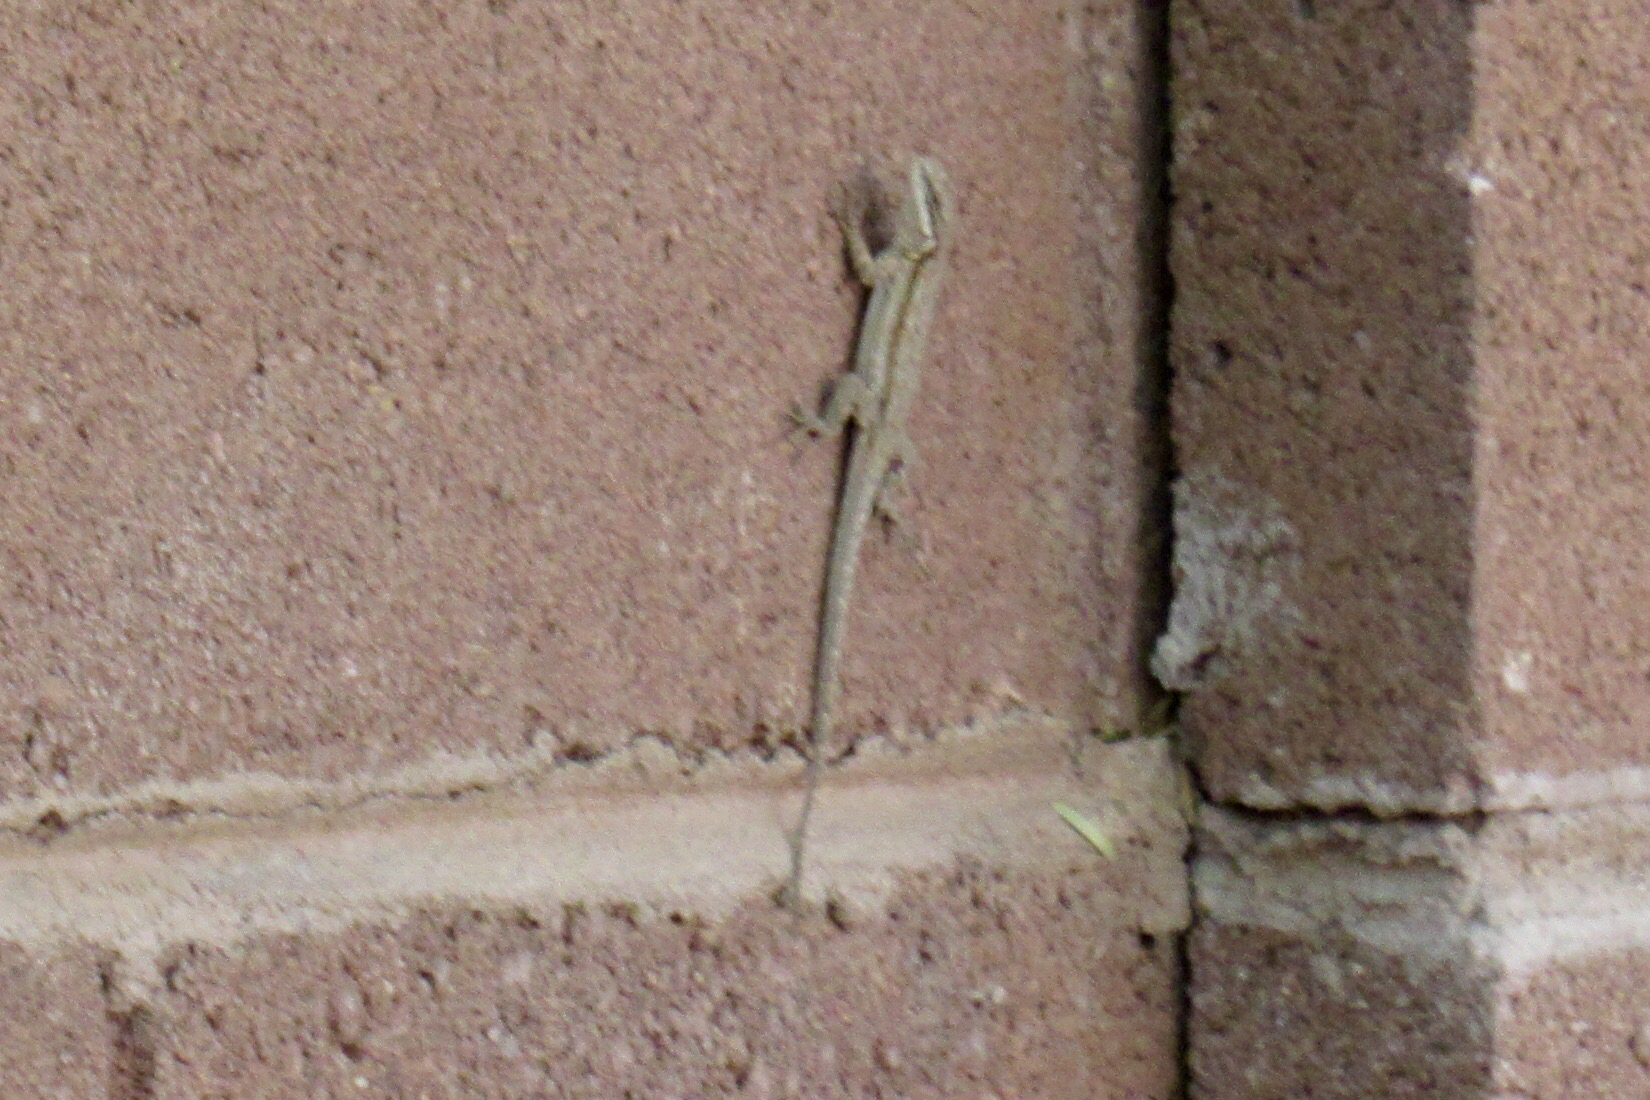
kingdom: Animalia
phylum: Chordata
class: Squamata
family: Phrynosomatidae
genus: Urosaurus
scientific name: Urosaurus ornatus
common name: Ornate tree lizard
